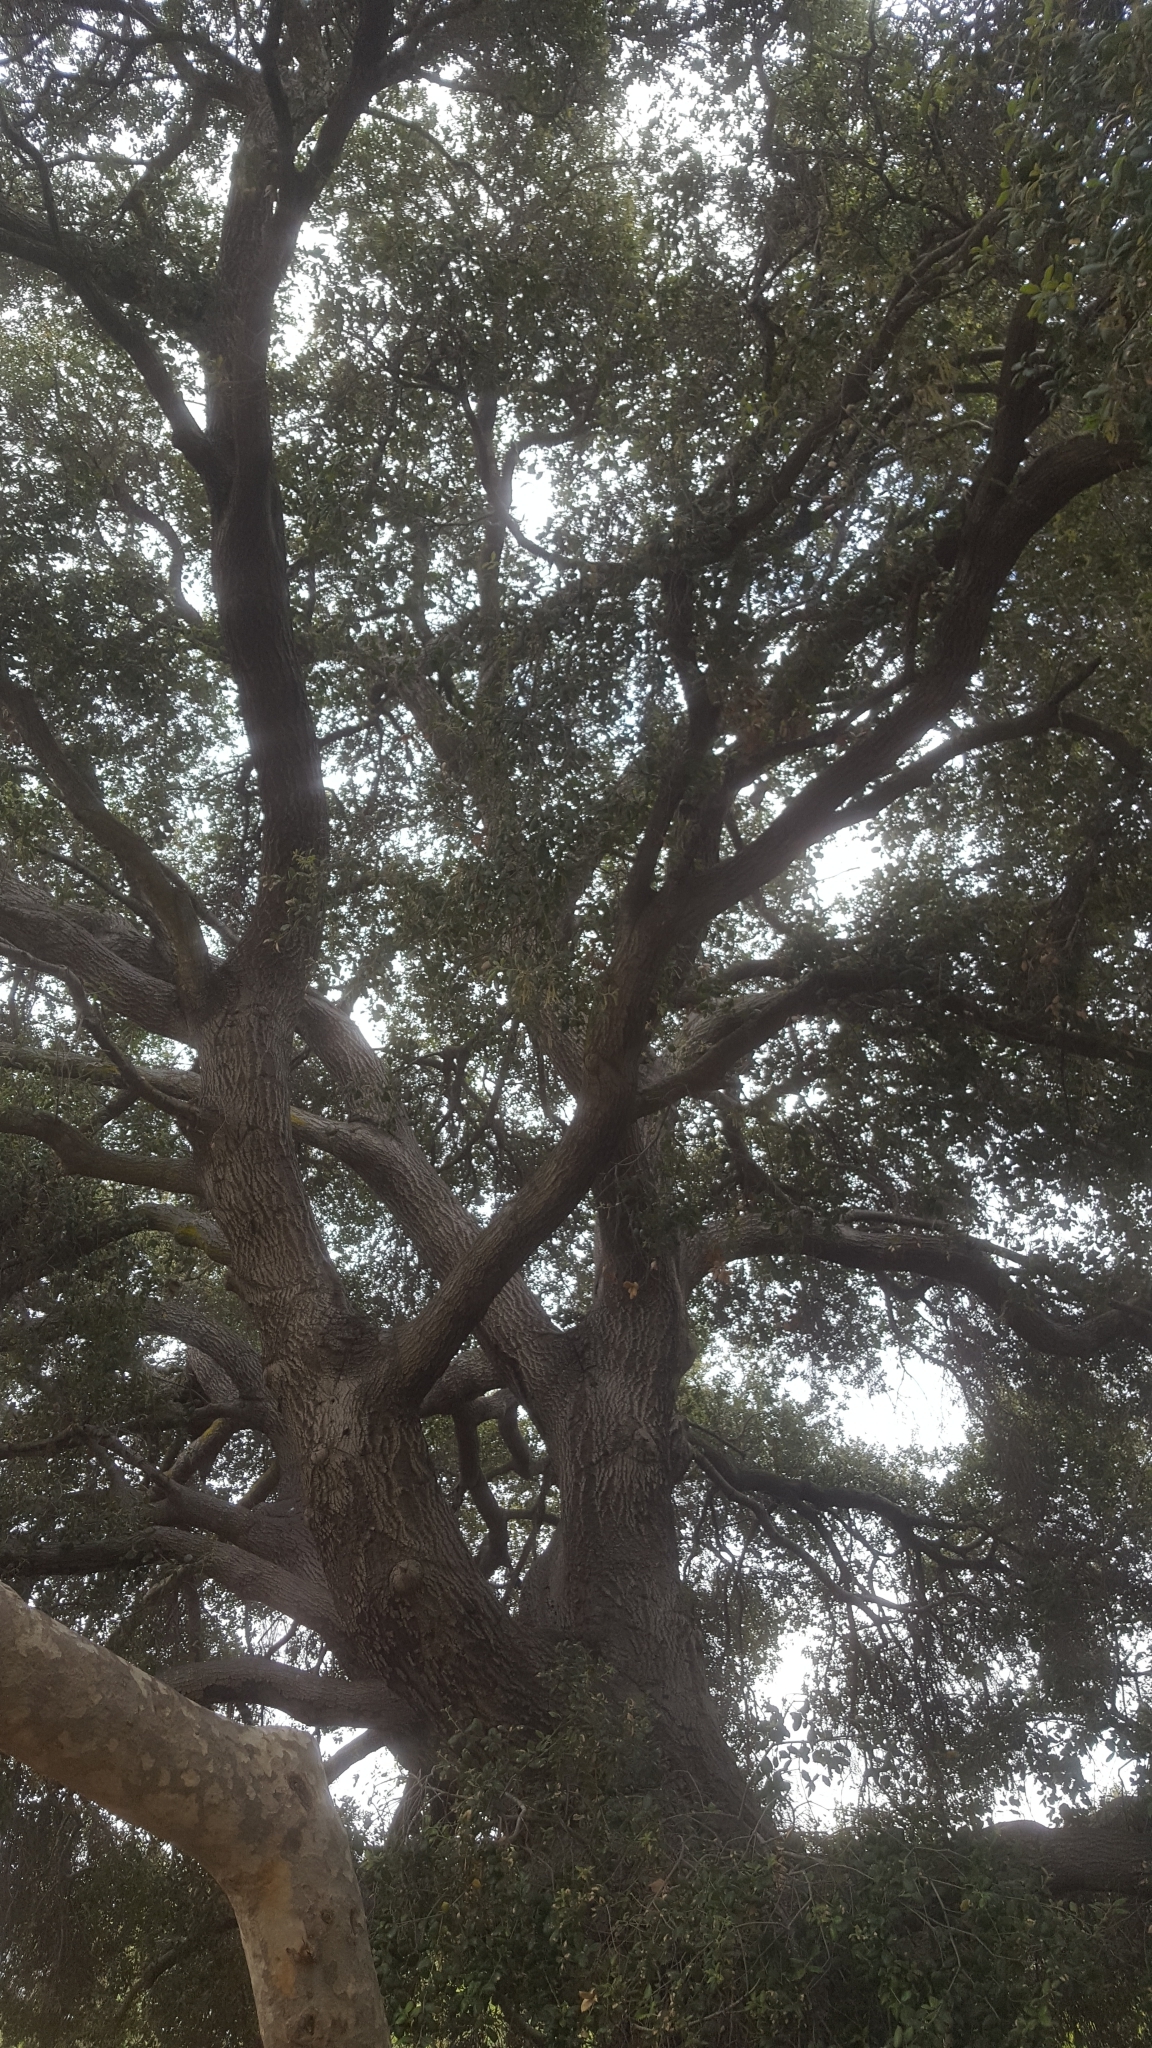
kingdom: Plantae
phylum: Tracheophyta
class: Magnoliopsida
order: Fagales
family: Fagaceae
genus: Quercus
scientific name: Quercus agrifolia
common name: California live oak
